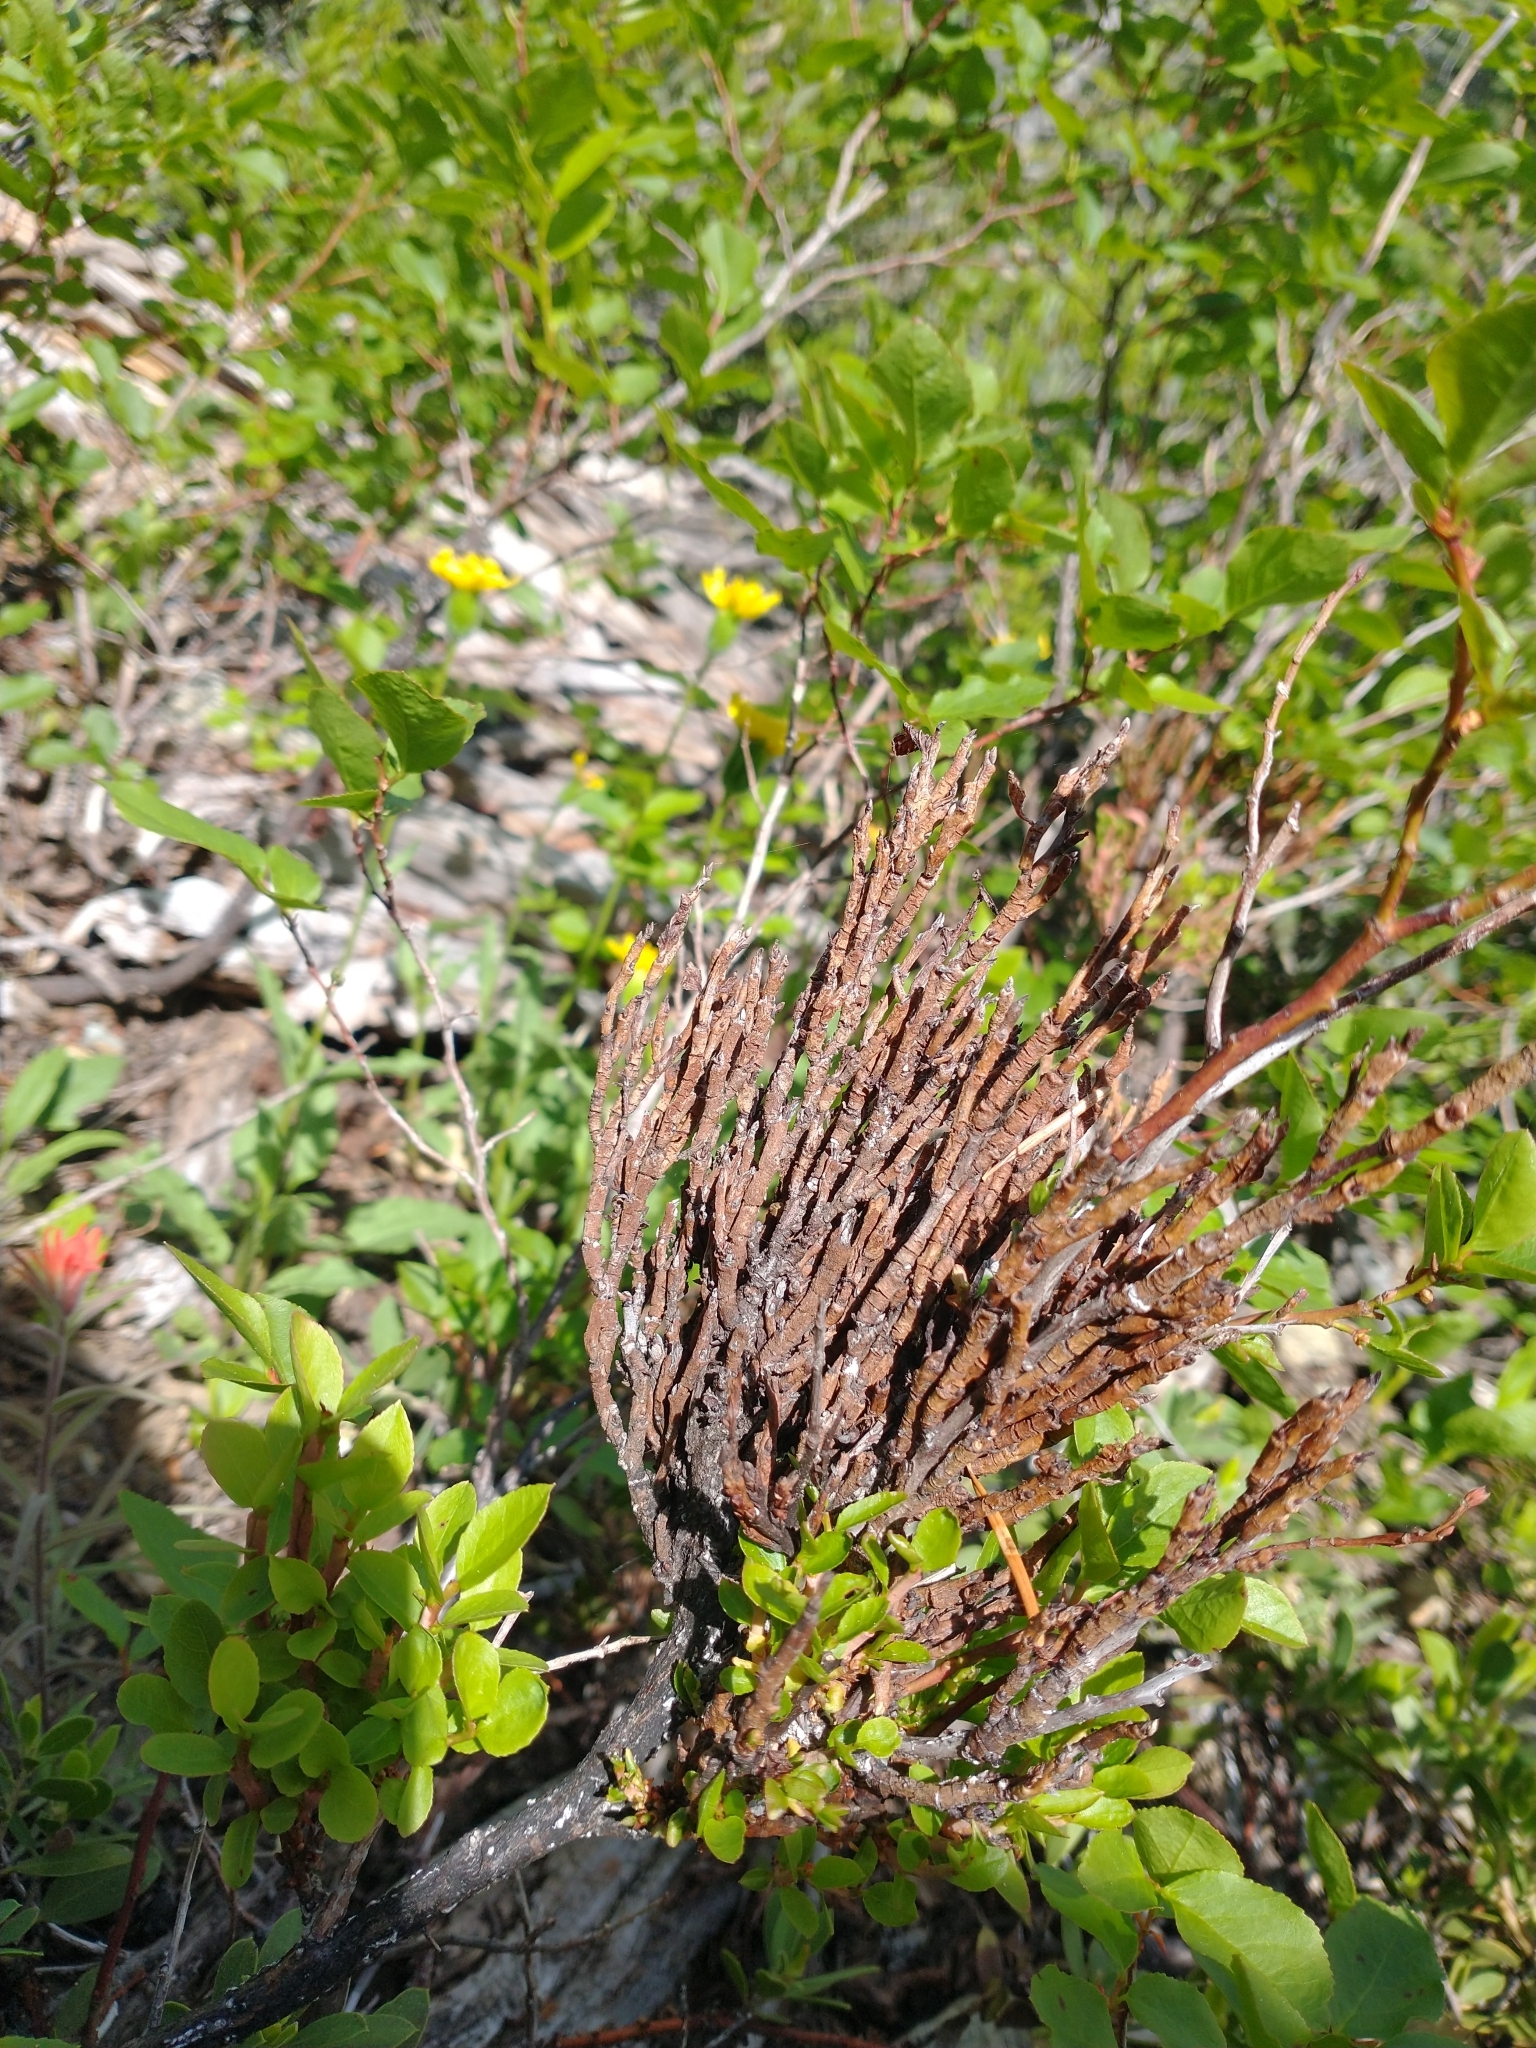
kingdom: Fungi
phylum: Basidiomycota
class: Pucciniomycetes
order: Pucciniales
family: Pucciniastraceae
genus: Calyptospora
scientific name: Calyptospora
